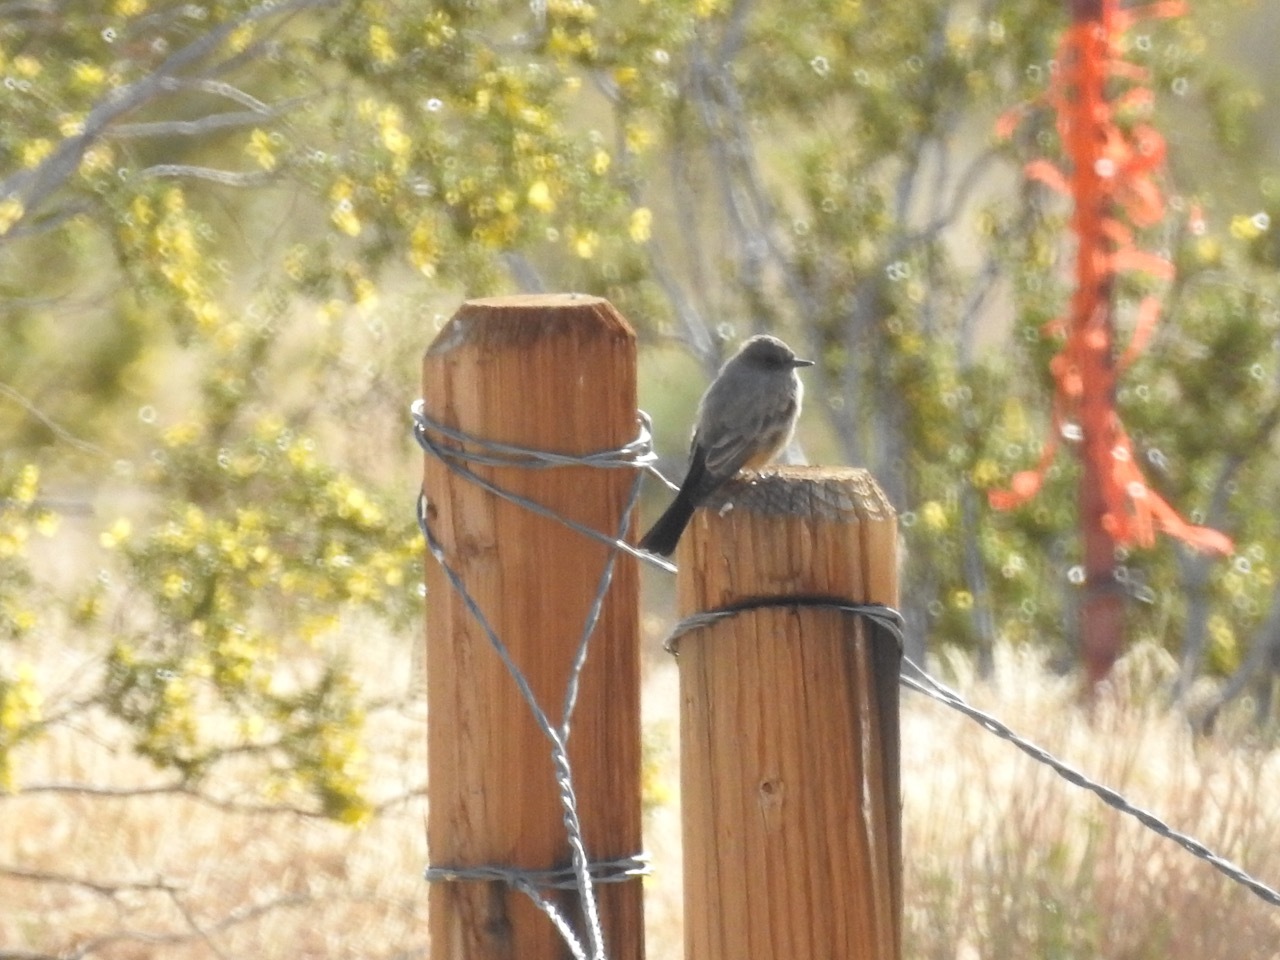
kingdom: Animalia
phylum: Chordata
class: Aves
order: Passeriformes
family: Tyrannidae
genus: Sayornis
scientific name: Sayornis saya
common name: Say's phoebe
